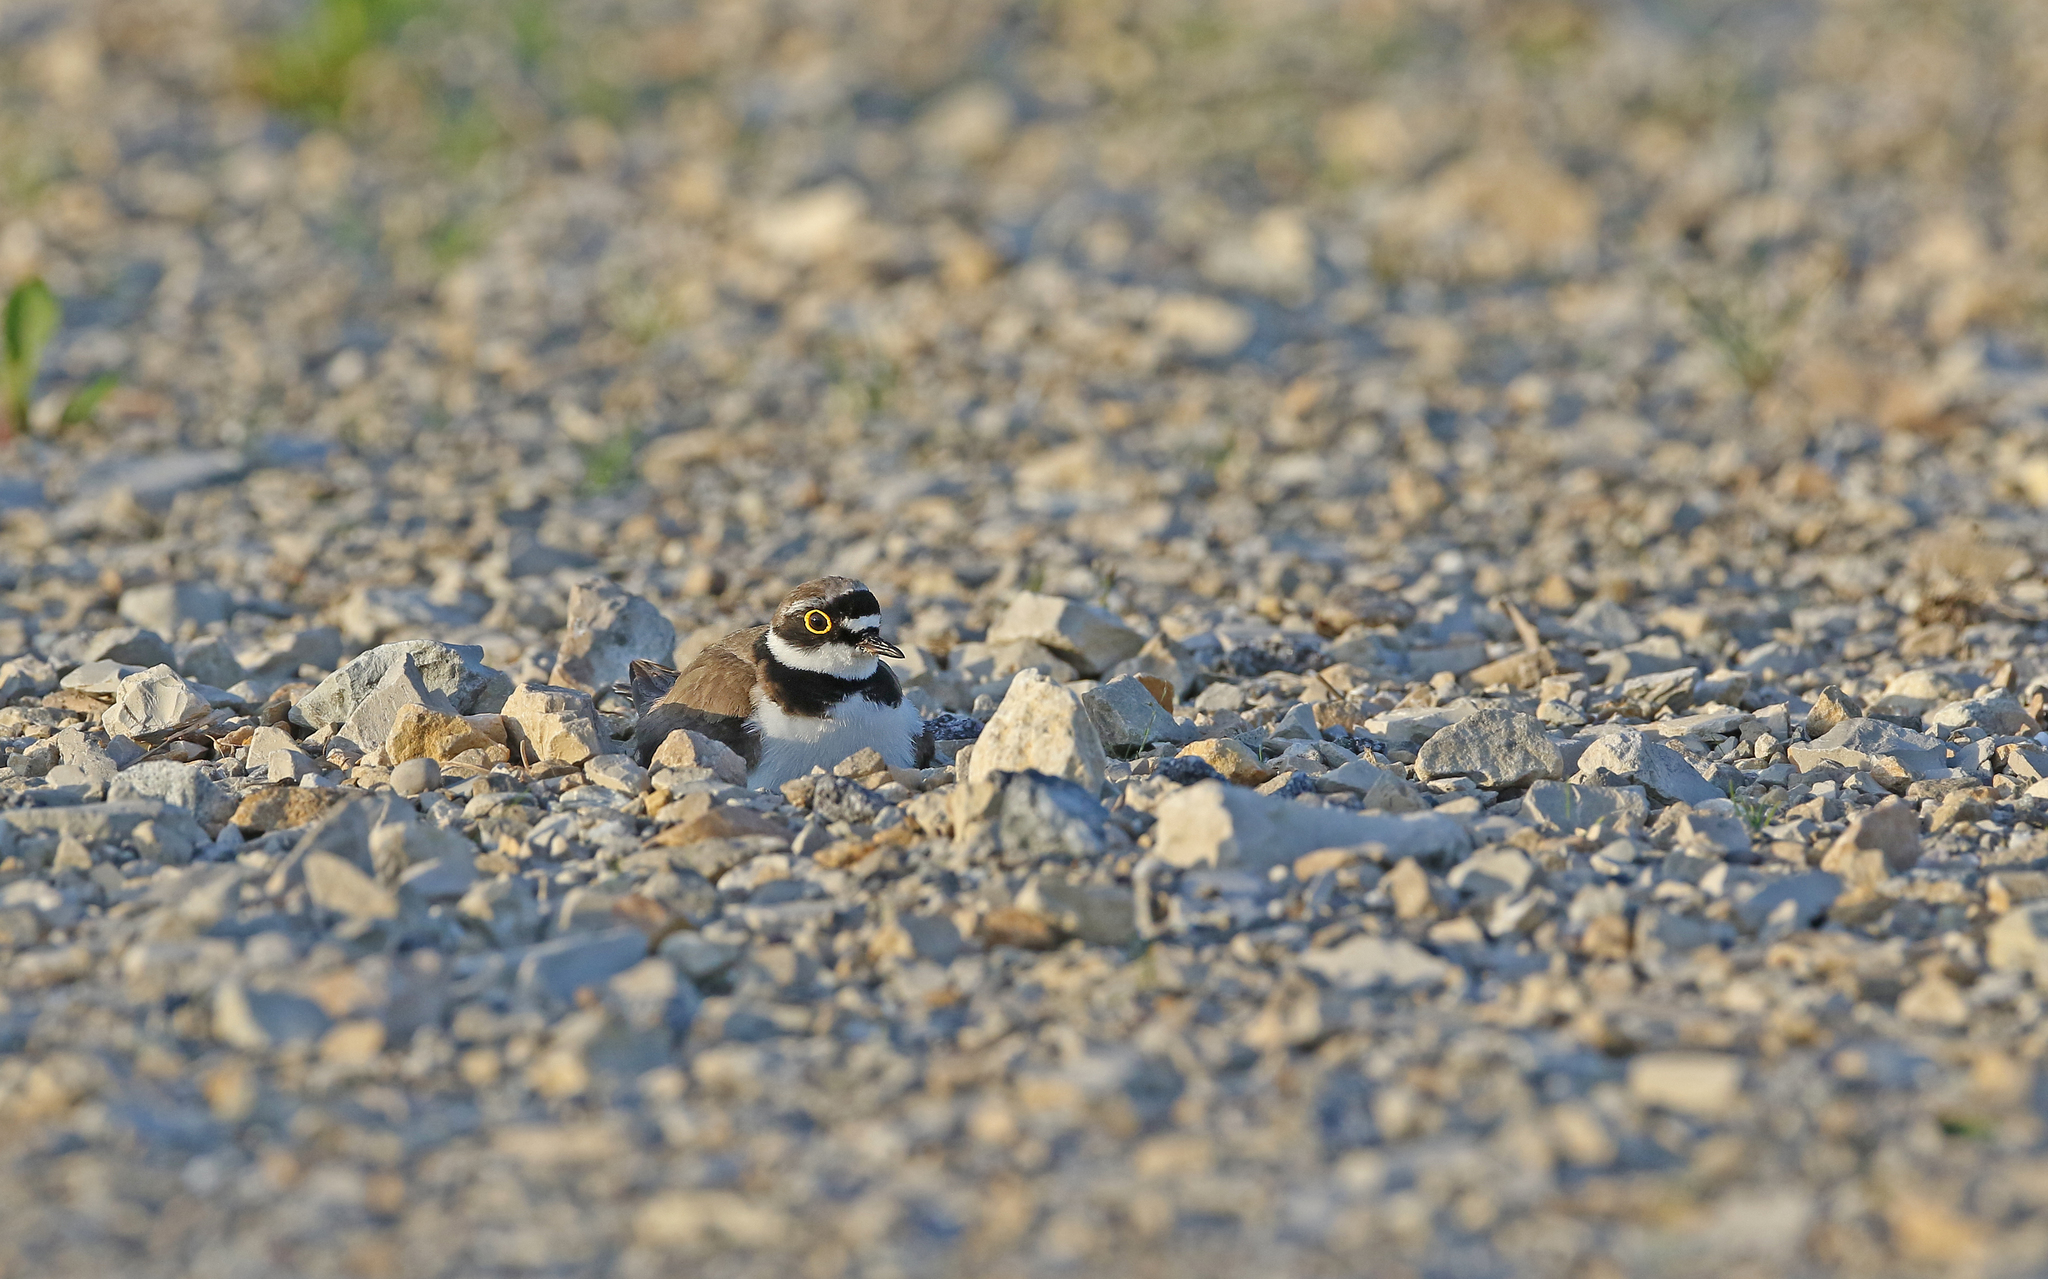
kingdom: Animalia
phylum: Chordata
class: Aves
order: Charadriiformes
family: Charadriidae
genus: Charadrius
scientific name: Charadrius dubius
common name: Little ringed plover
